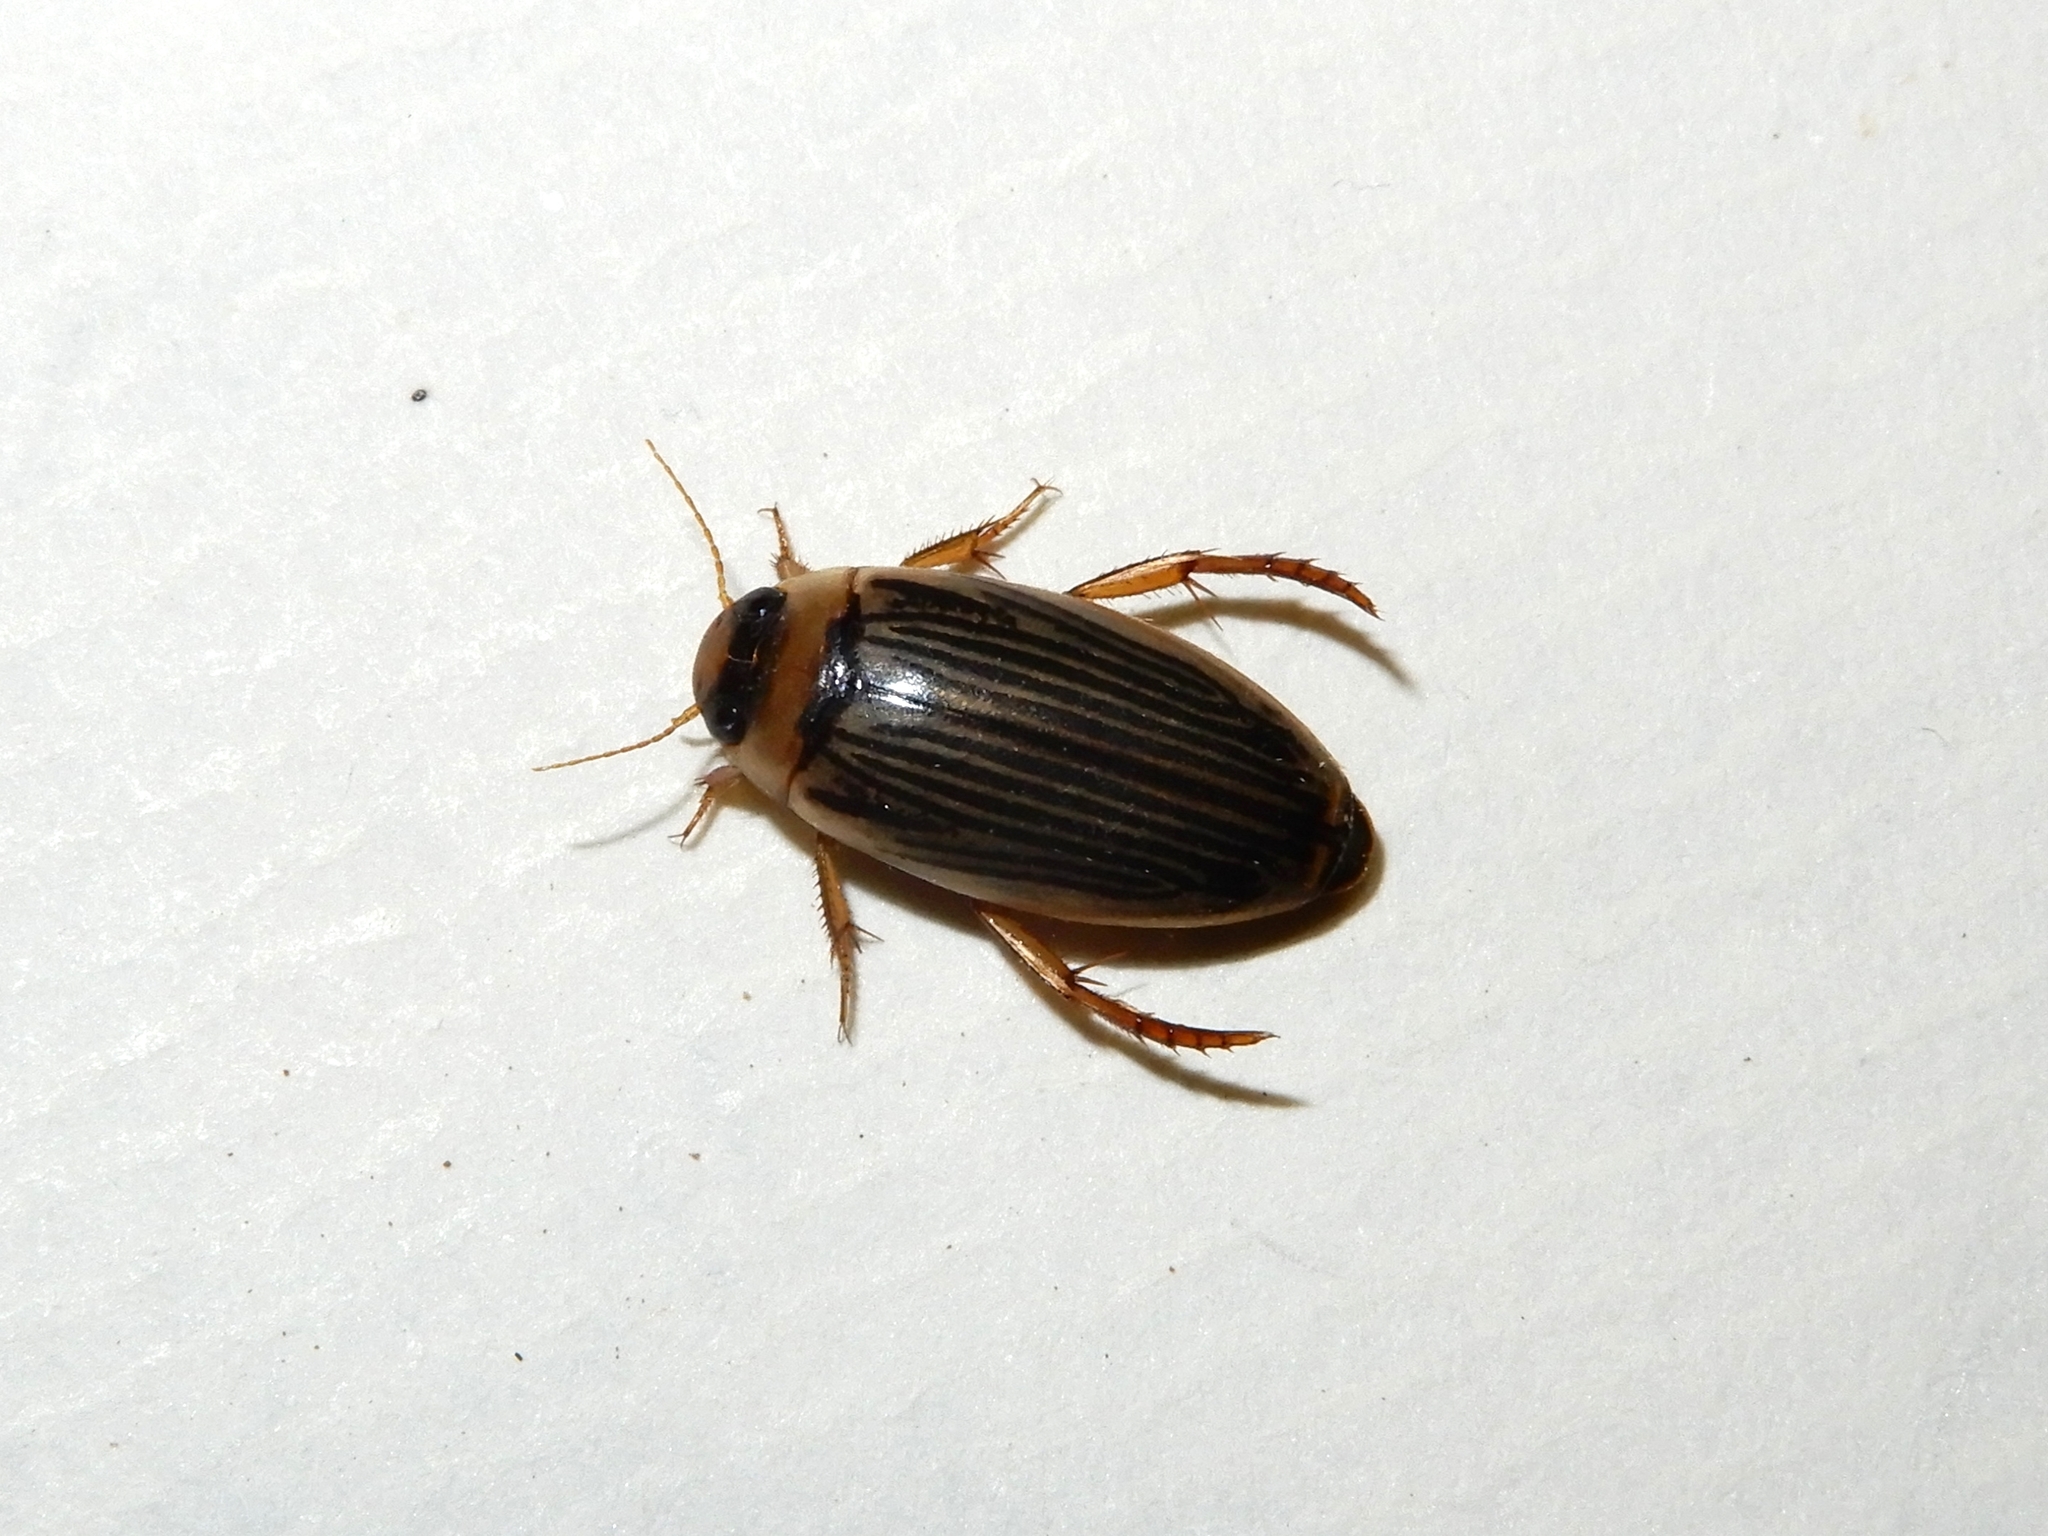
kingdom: Animalia
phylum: Arthropoda
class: Insecta
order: Coleoptera
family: Dytiscidae
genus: Lancetes
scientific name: Lancetes lanceolatus
